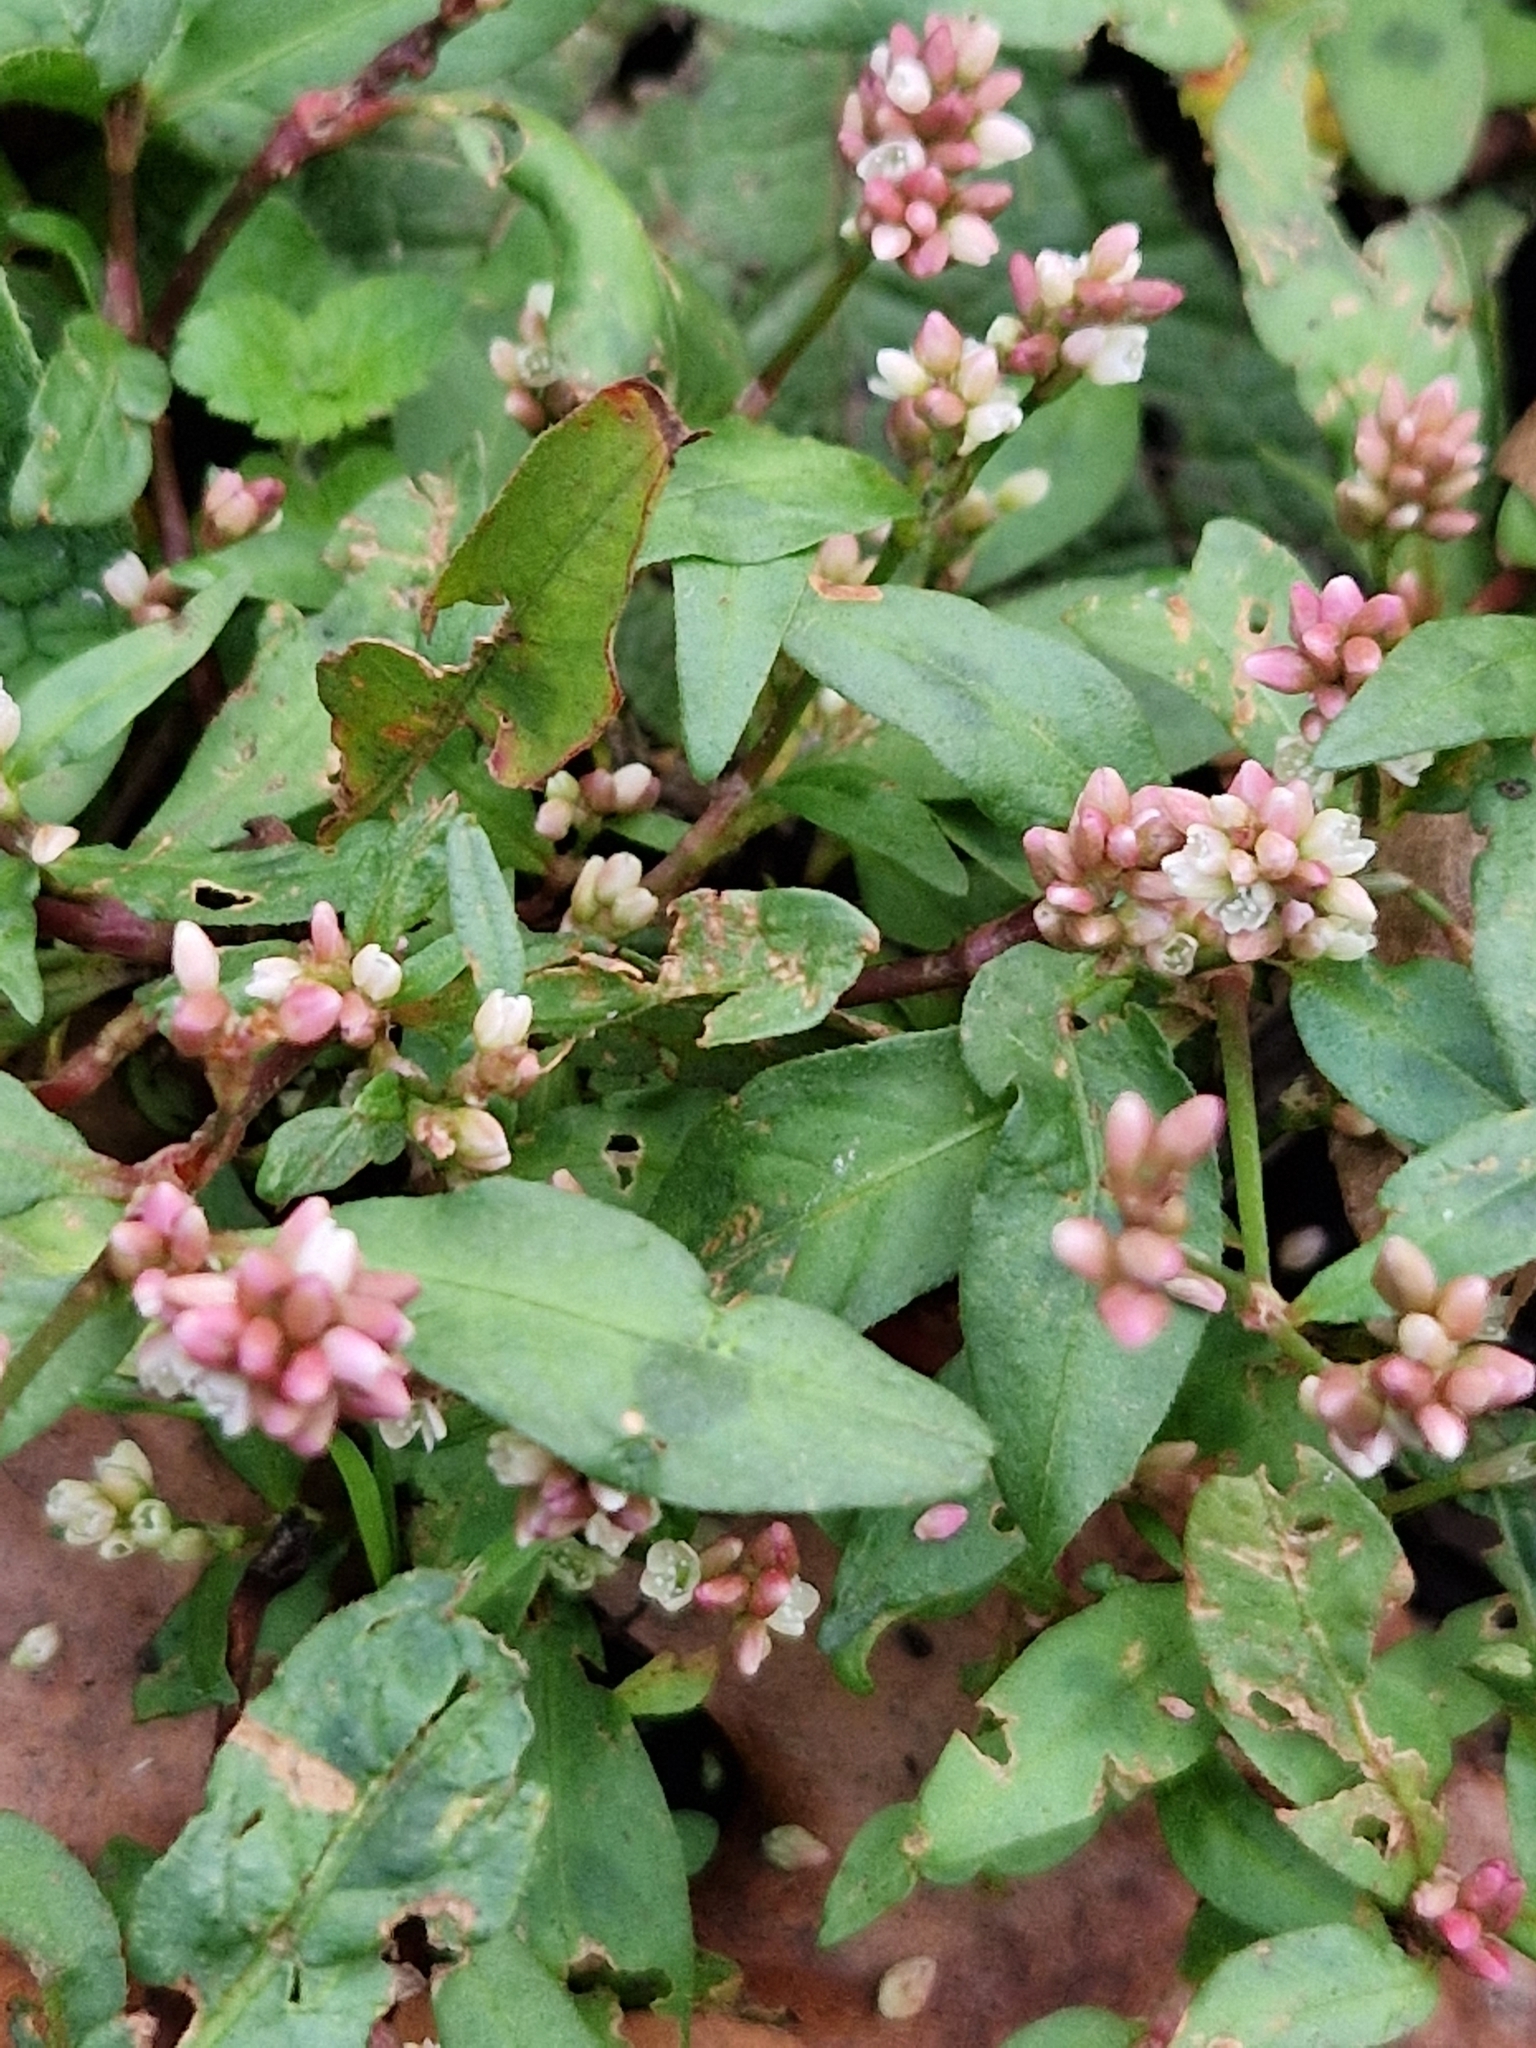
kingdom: Plantae
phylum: Tracheophyta
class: Magnoliopsida
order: Caryophyllales
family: Polygonaceae
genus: Persicaria
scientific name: Persicaria maculosa
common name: Redshank
